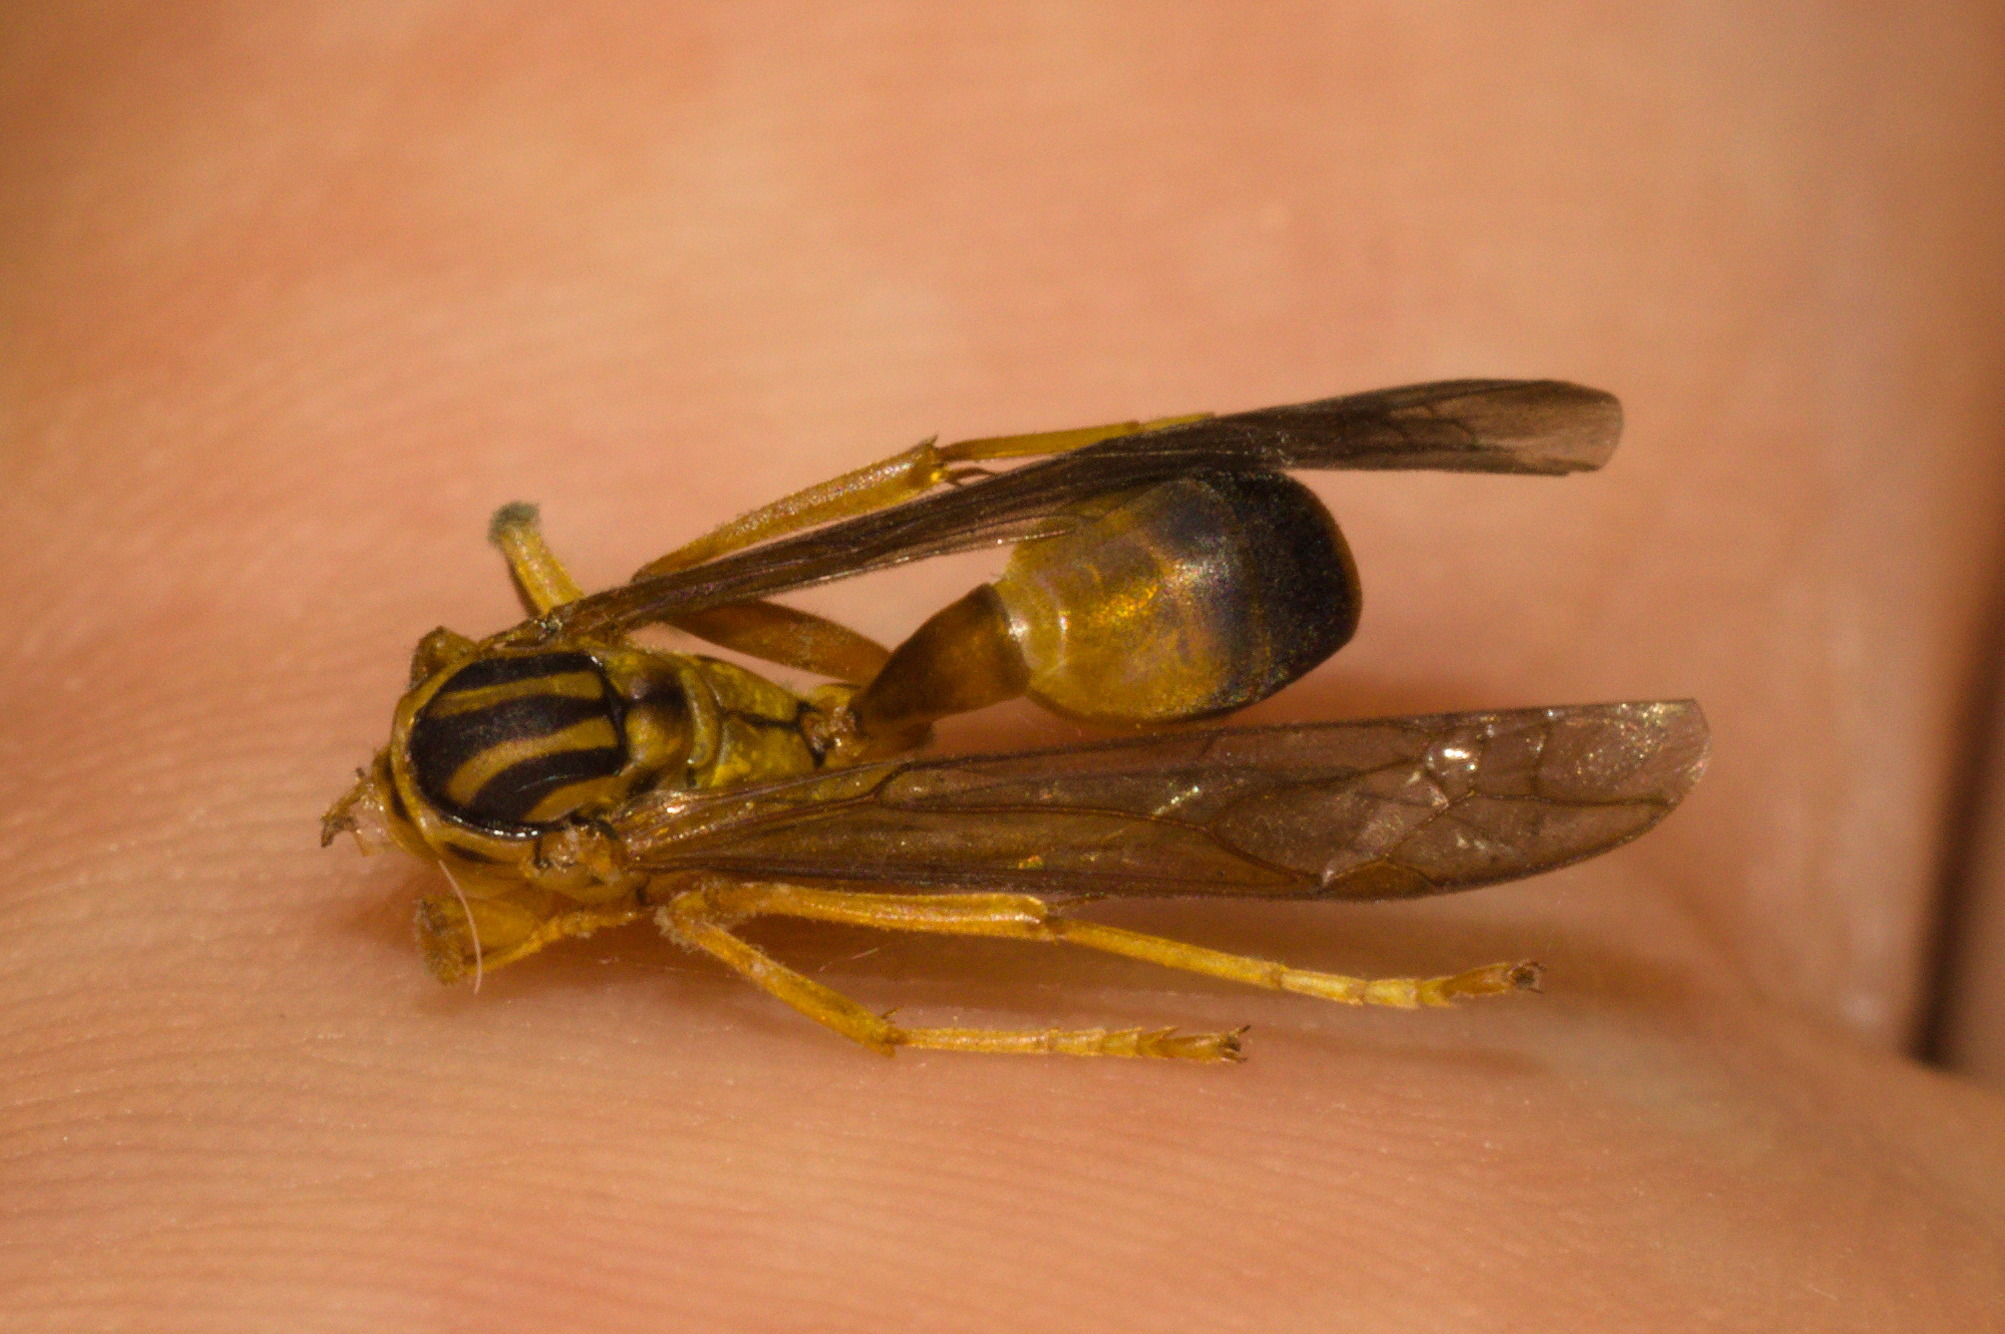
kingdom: Animalia
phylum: Arthropoda
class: Insecta
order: Hymenoptera
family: Vespidae
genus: Agelaia
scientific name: Agelaia pallipes
